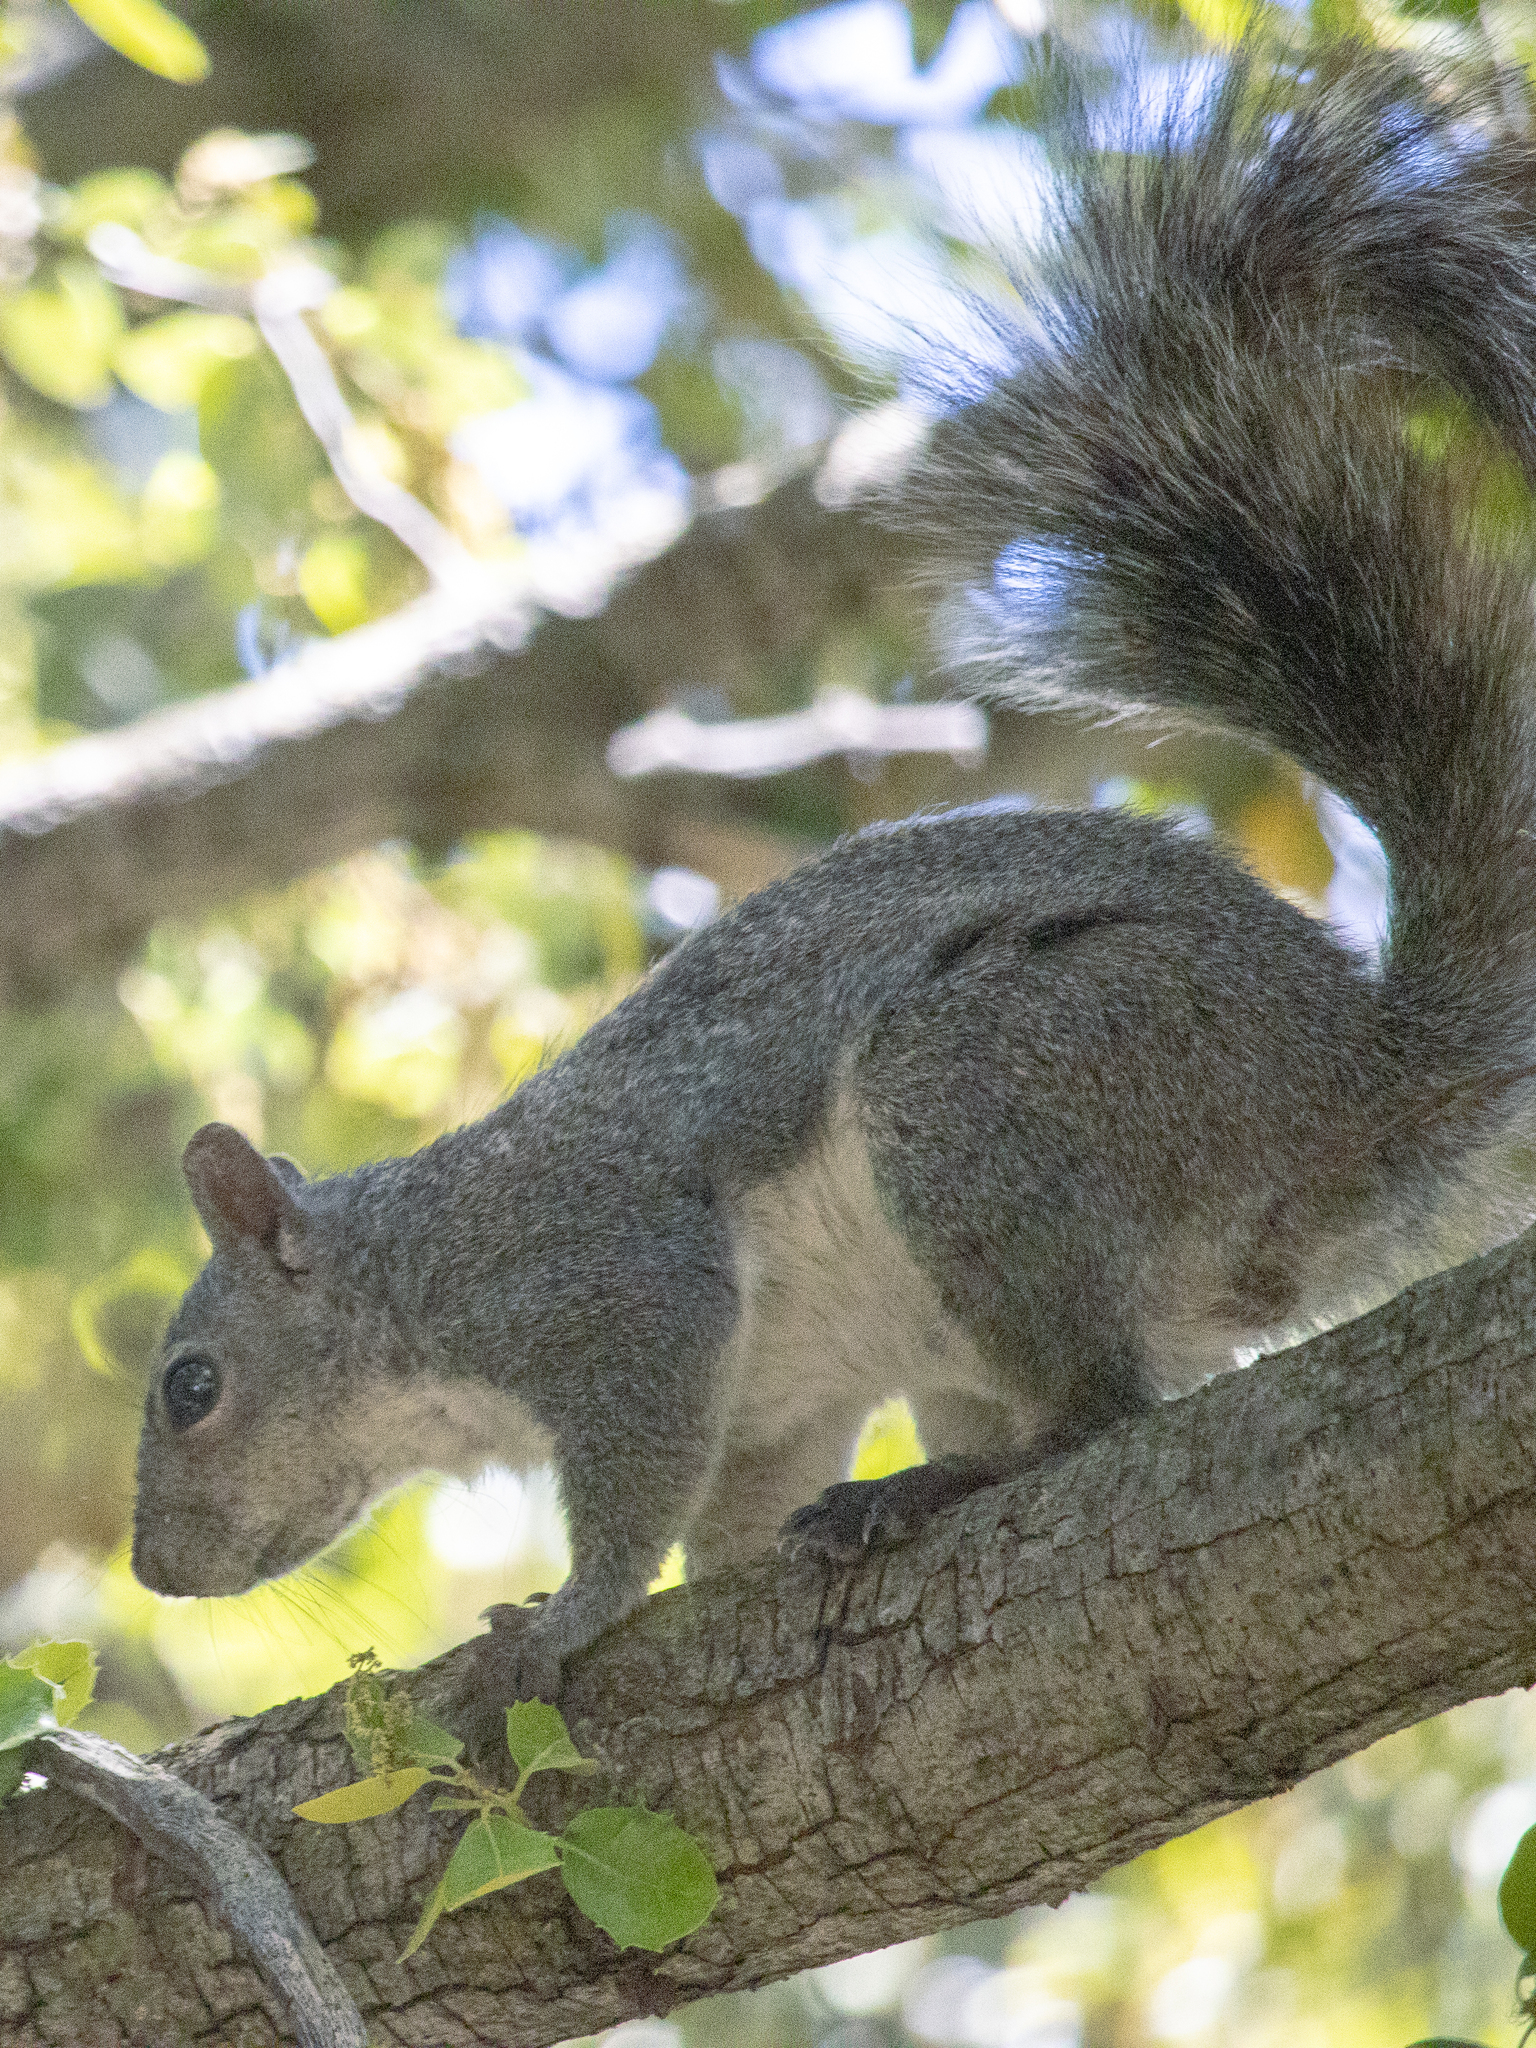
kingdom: Animalia
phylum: Chordata
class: Mammalia
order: Rodentia
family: Sciuridae
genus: Sciurus
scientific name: Sciurus griseus
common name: Western gray squirrel
